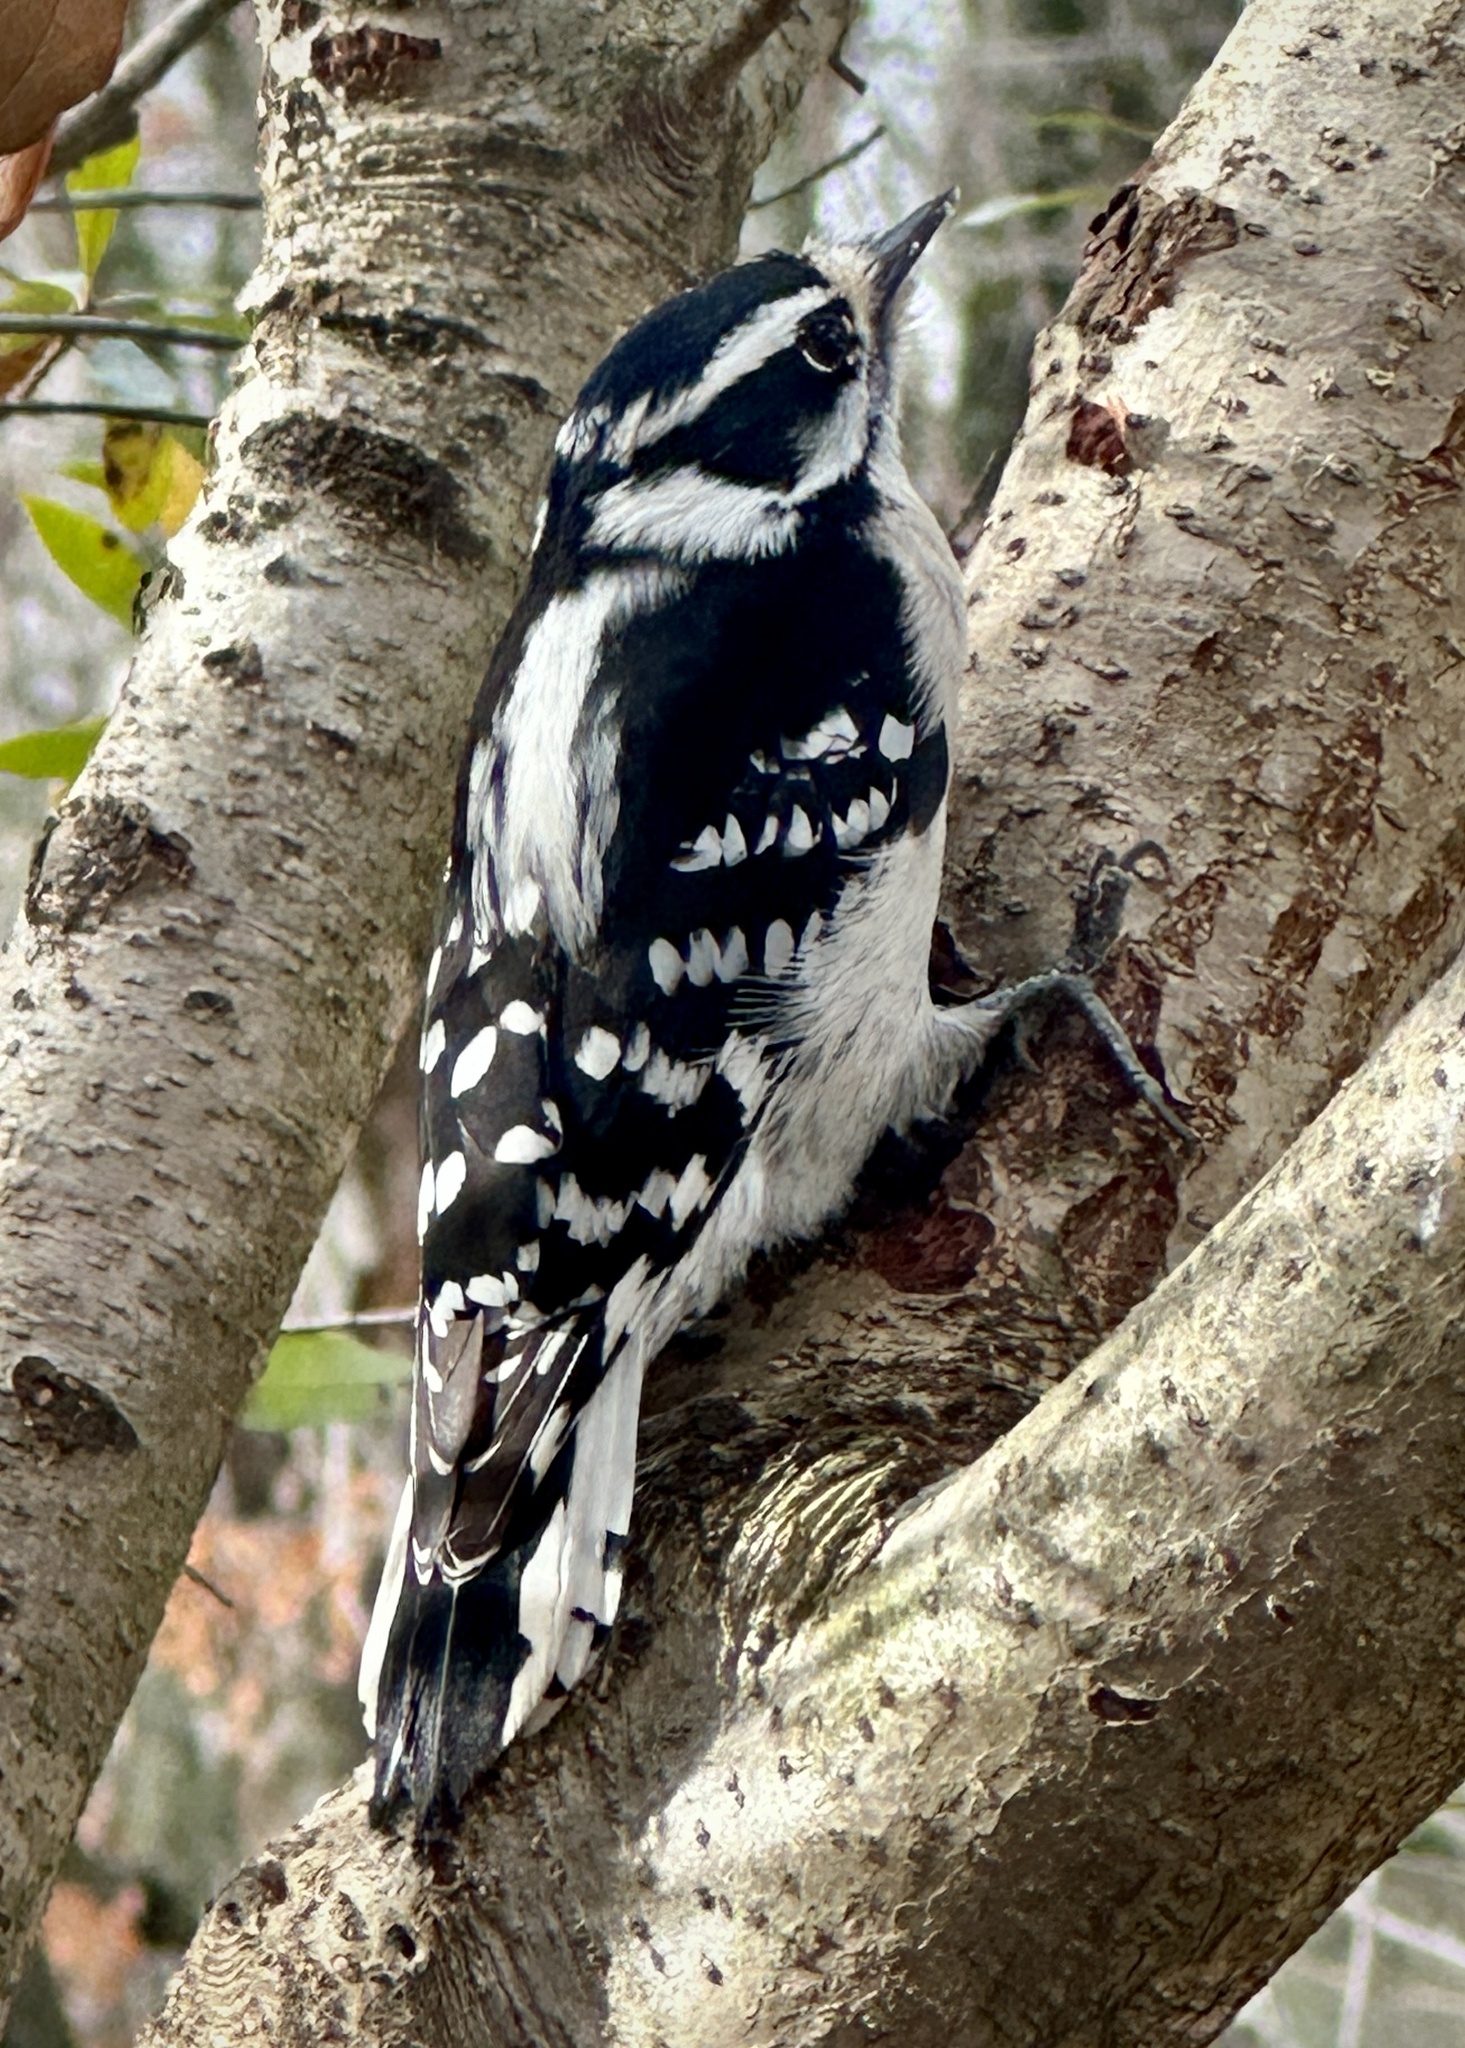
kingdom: Animalia
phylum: Chordata
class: Aves
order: Piciformes
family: Picidae
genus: Dryobates
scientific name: Dryobates pubescens
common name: Downy woodpecker
